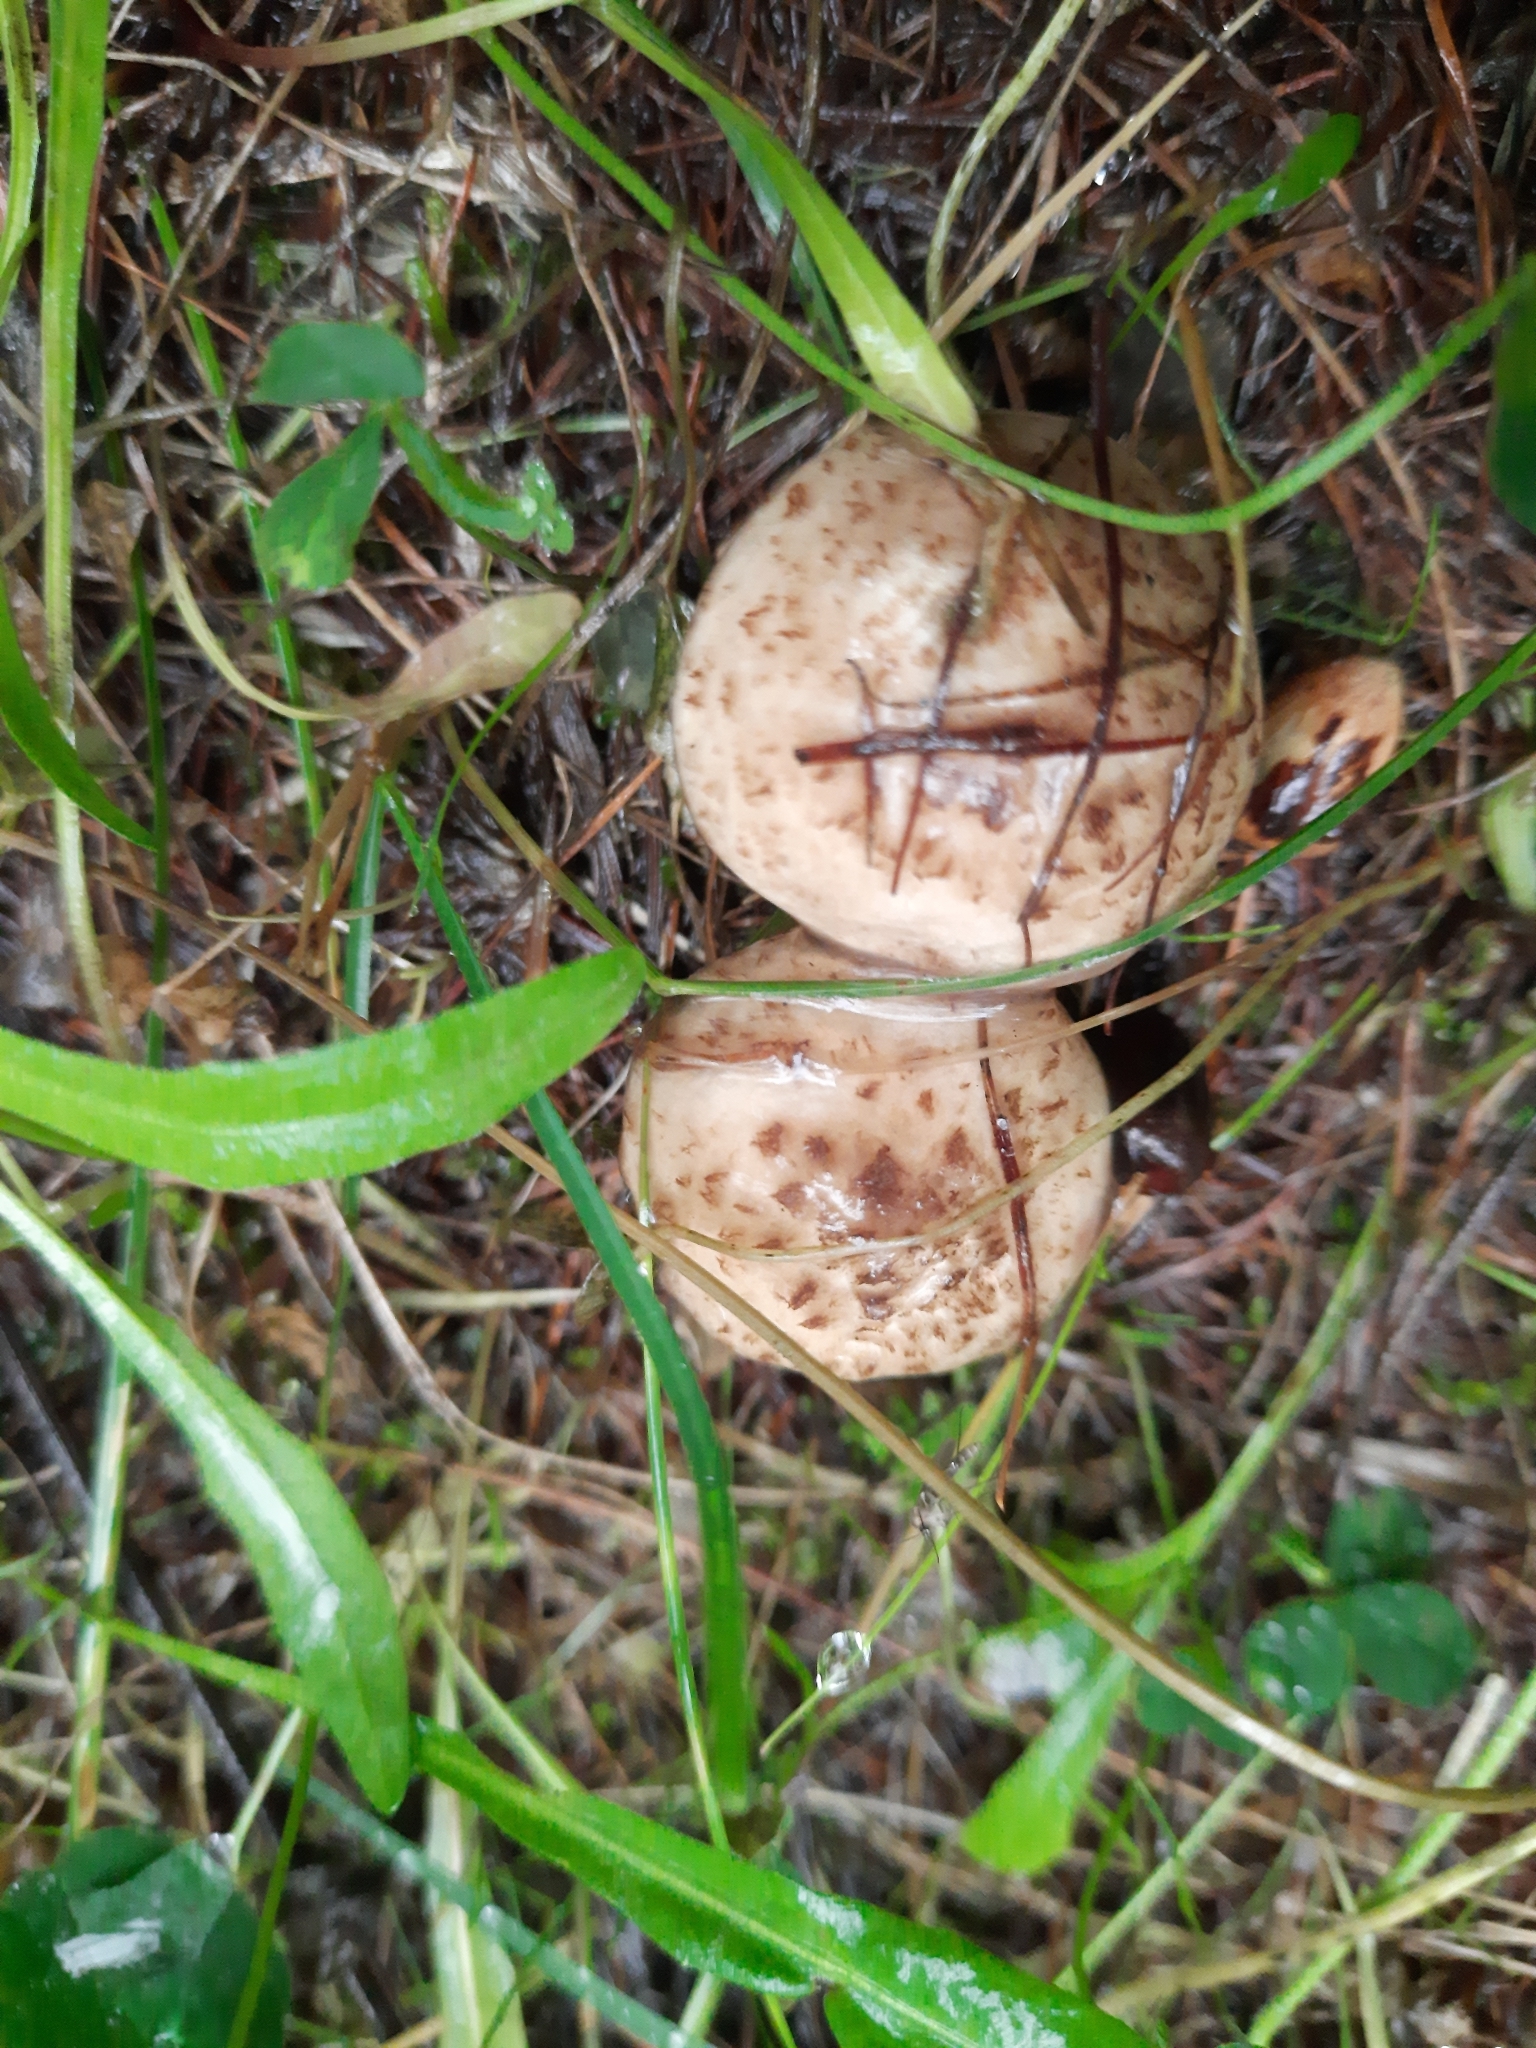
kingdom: Fungi
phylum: Basidiomycota
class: Agaricomycetes
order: Boletales
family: Suillaceae
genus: Suillus
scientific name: Suillus viscidus
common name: Sticky bolete
